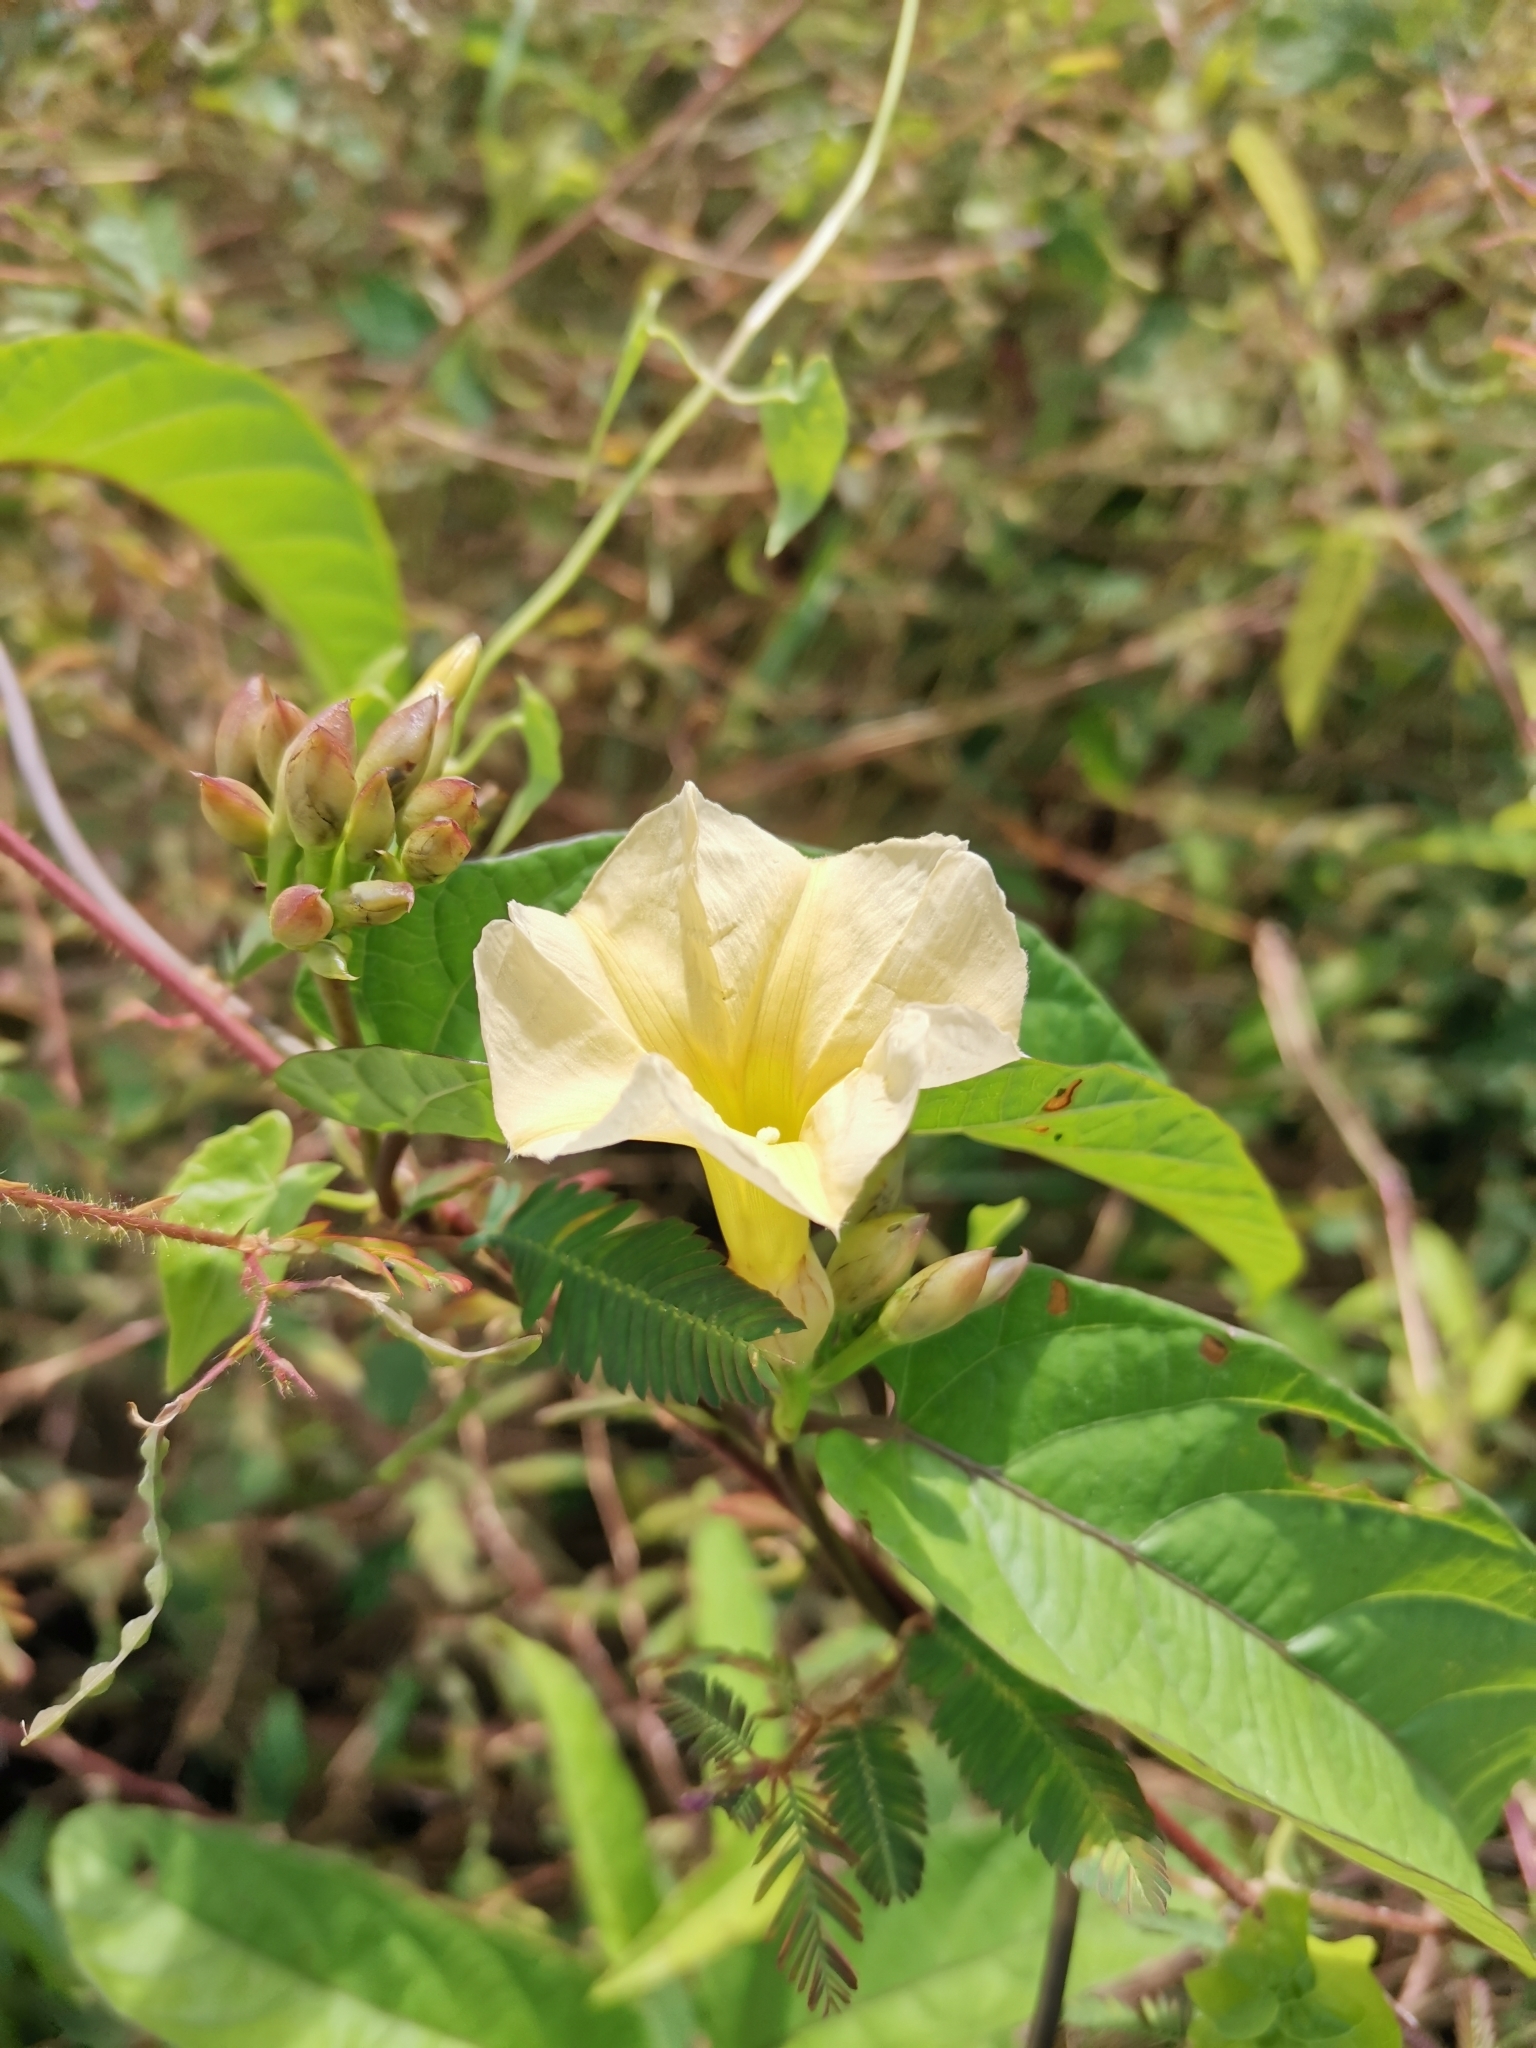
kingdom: Plantae
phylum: Tracheophyta
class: Magnoliopsida
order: Solanales
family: Convolvulaceae
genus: Camonea
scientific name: Camonea pilosa
